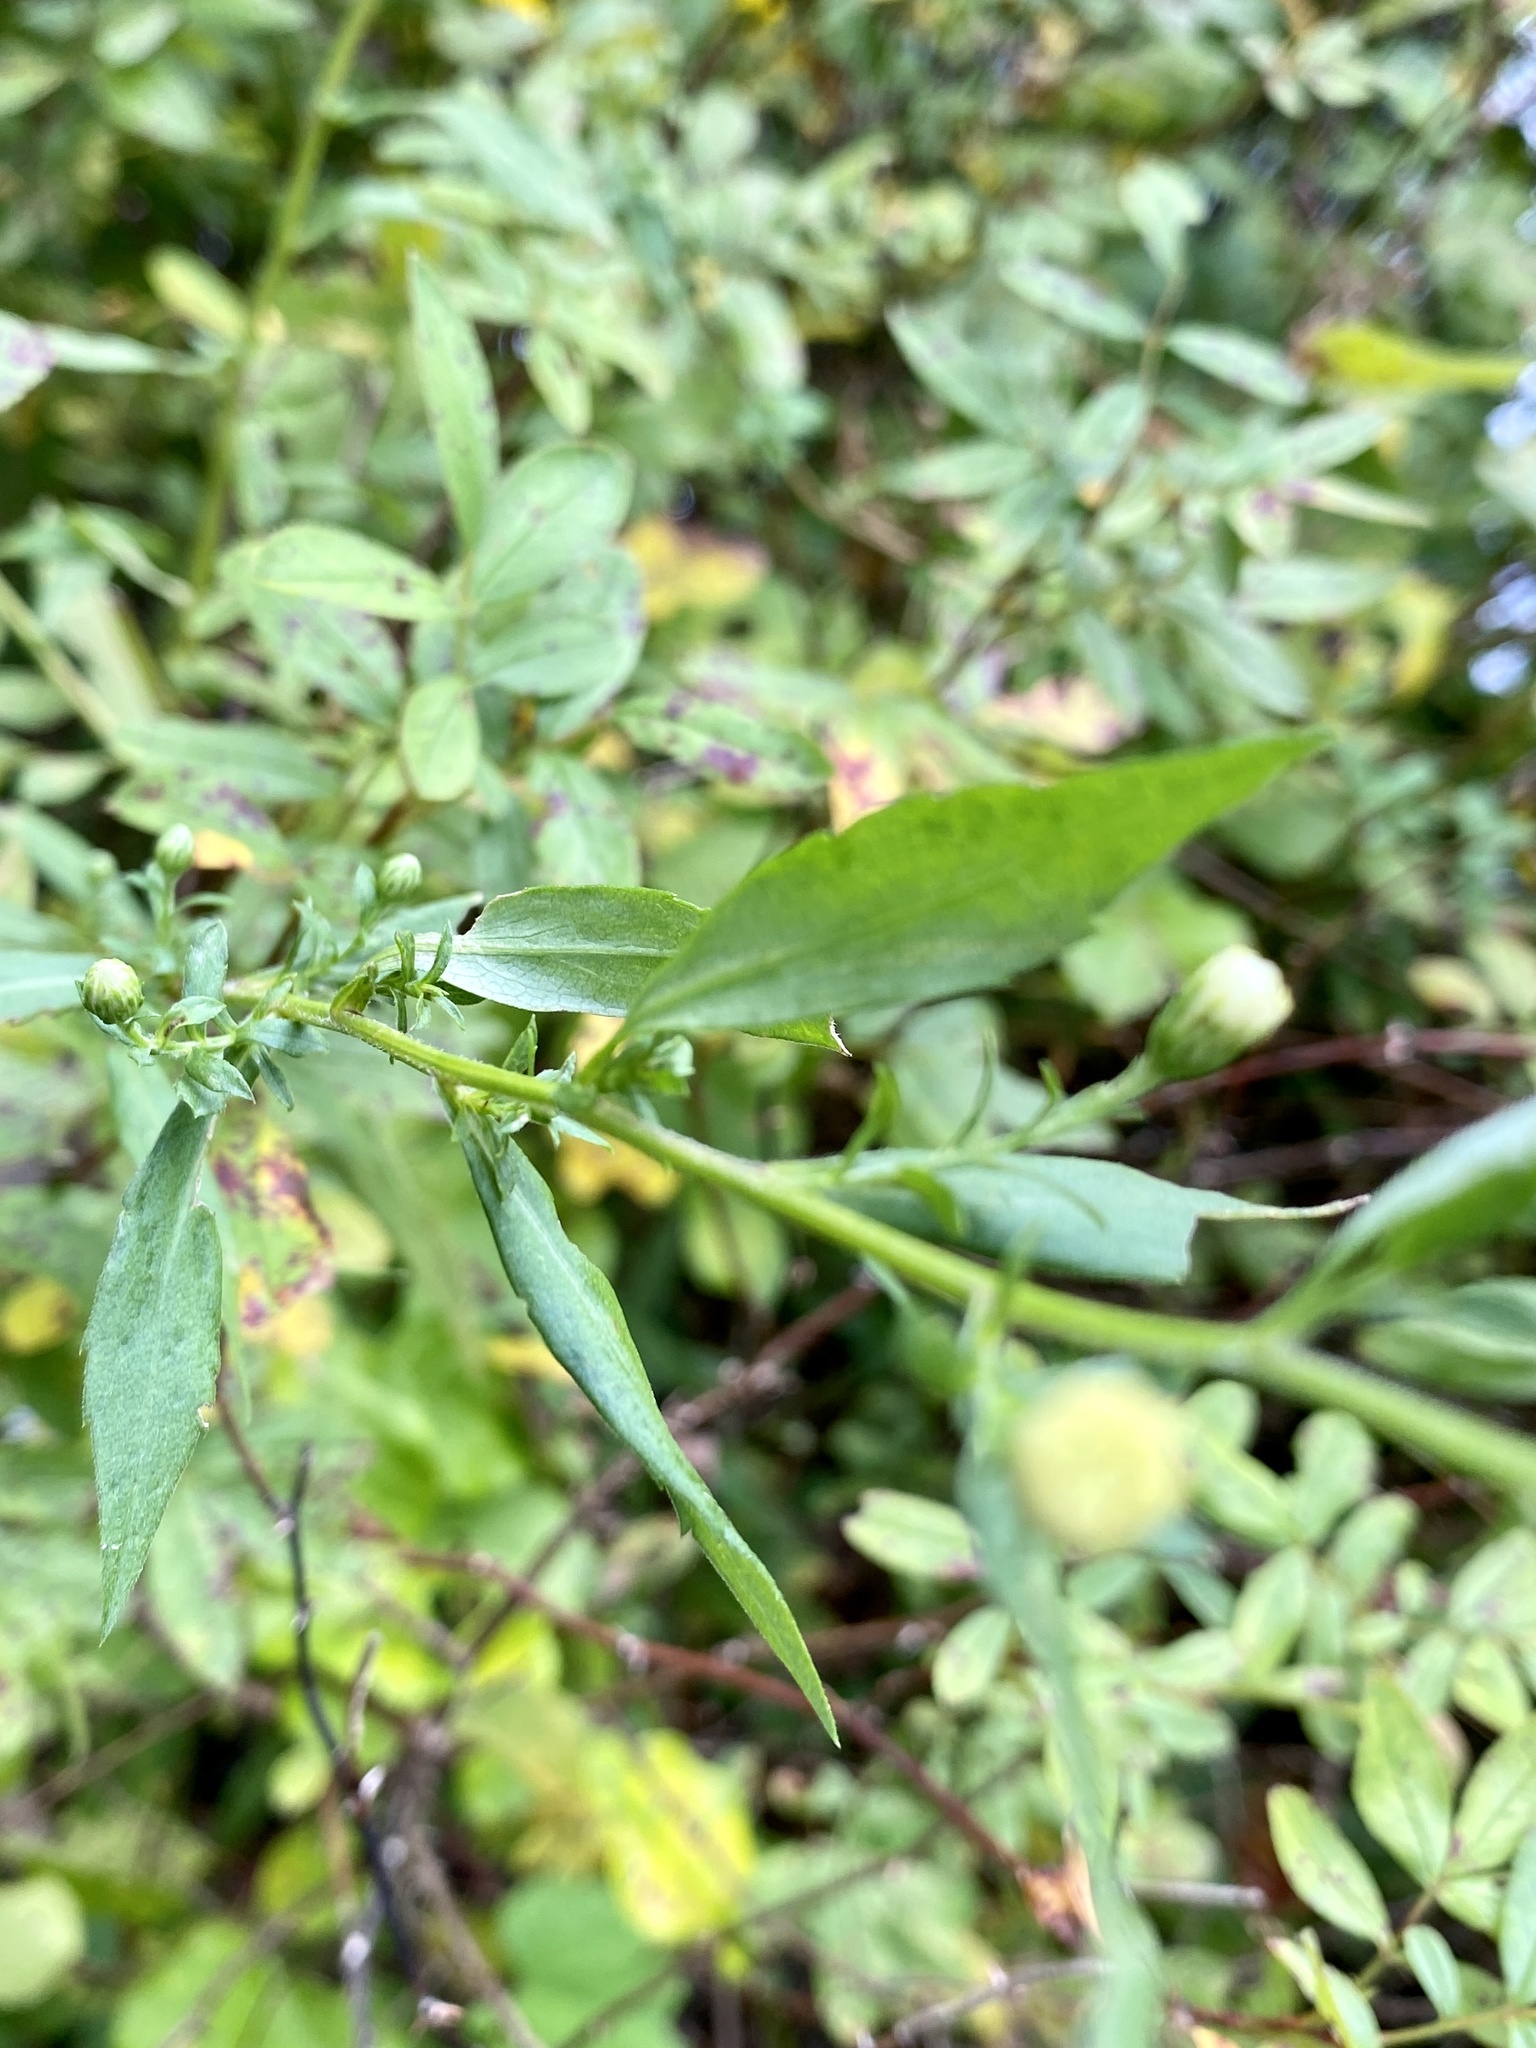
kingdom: Plantae
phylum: Tracheophyta
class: Magnoliopsida
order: Asterales
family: Asteraceae
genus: Symphyotrichum
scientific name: Symphyotrichum lanceolatum
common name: Panicled aster
